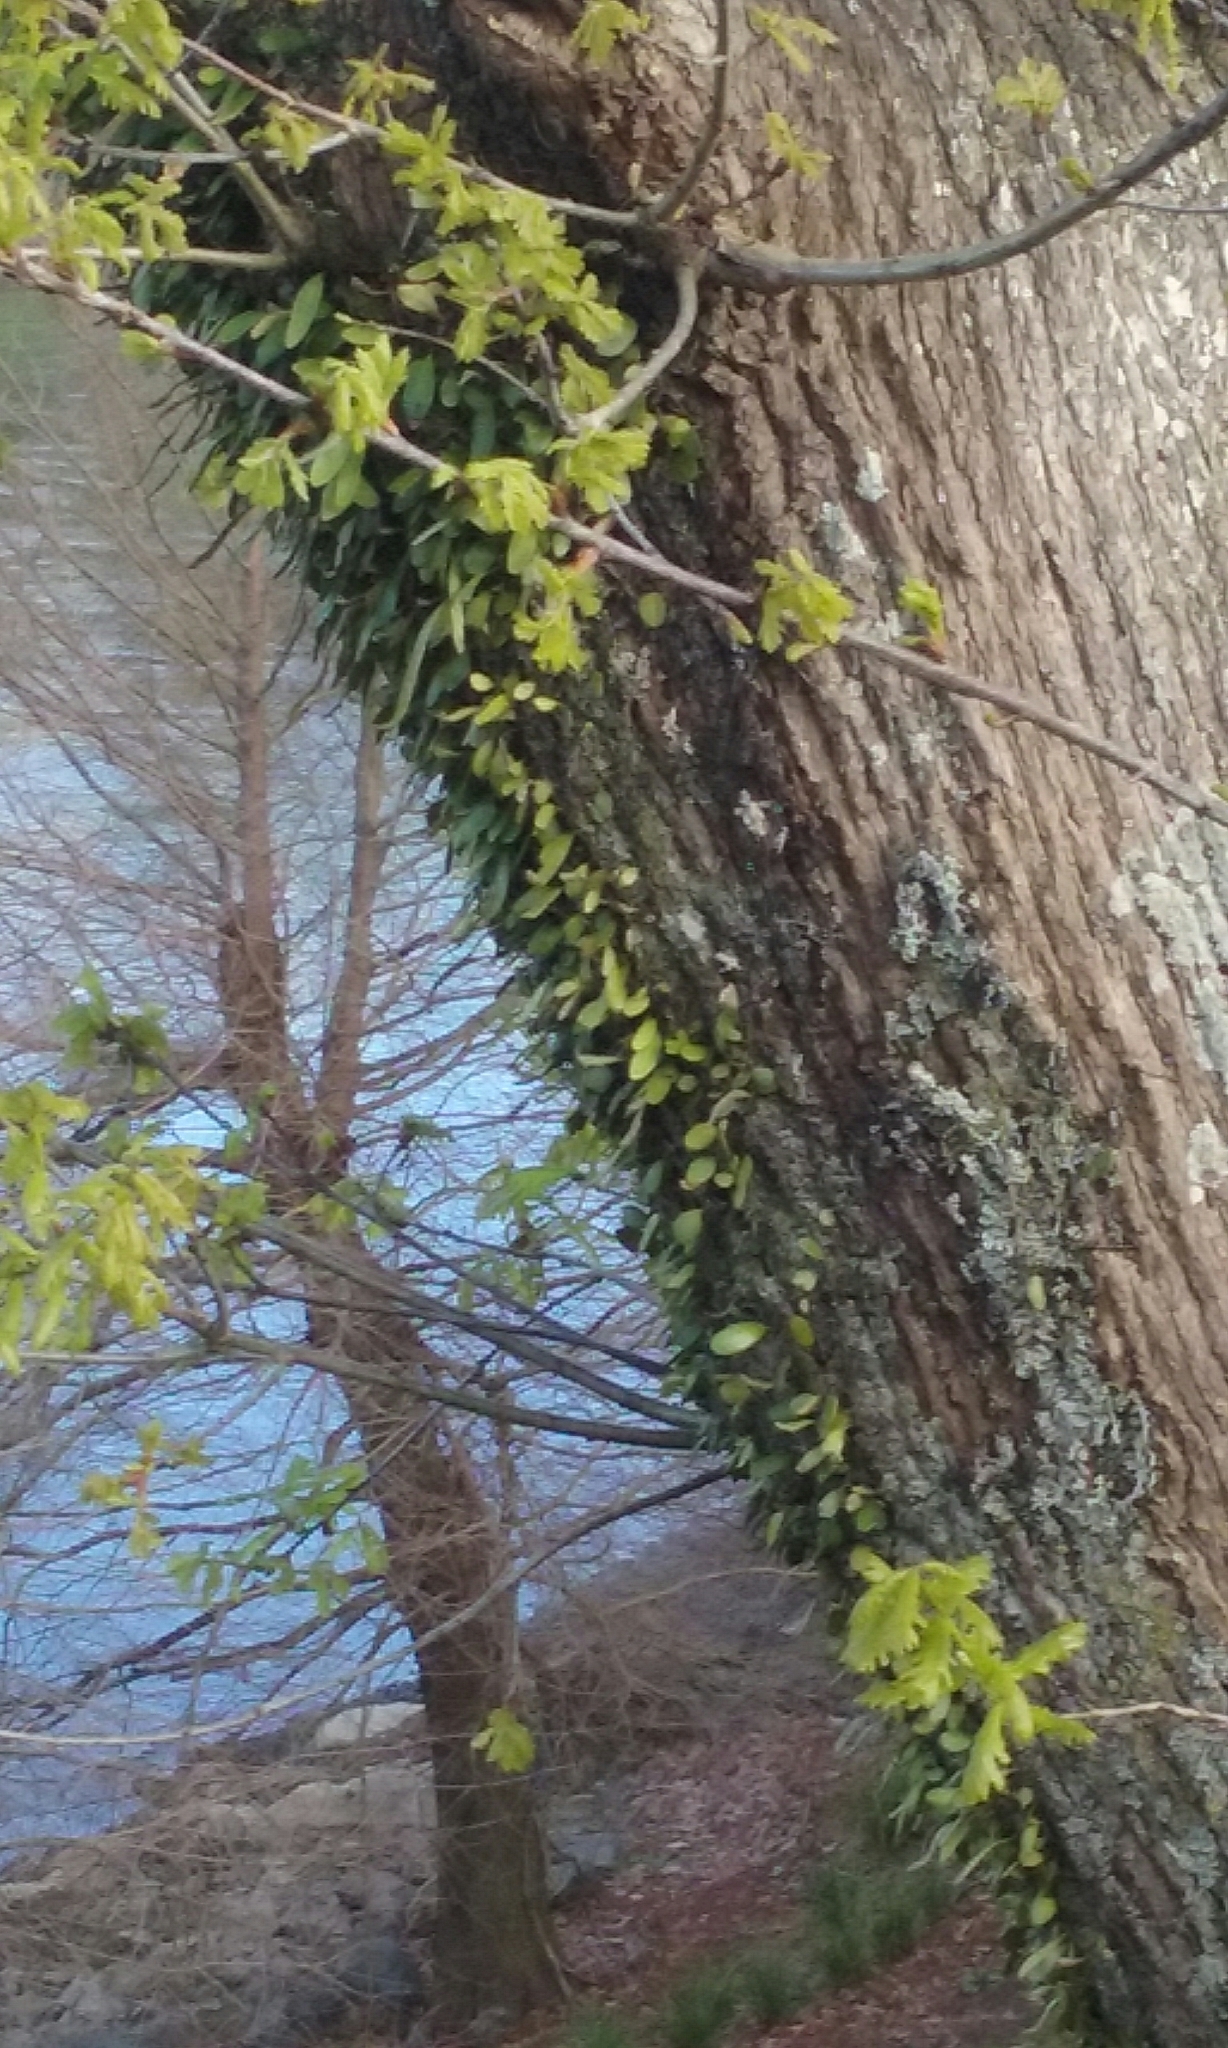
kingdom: Plantae
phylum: Tracheophyta
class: Polypodiopsida
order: Polypodiales
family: Polypodiaceae
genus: Pyrrosia
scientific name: Pyrrosia eleagnifolia
